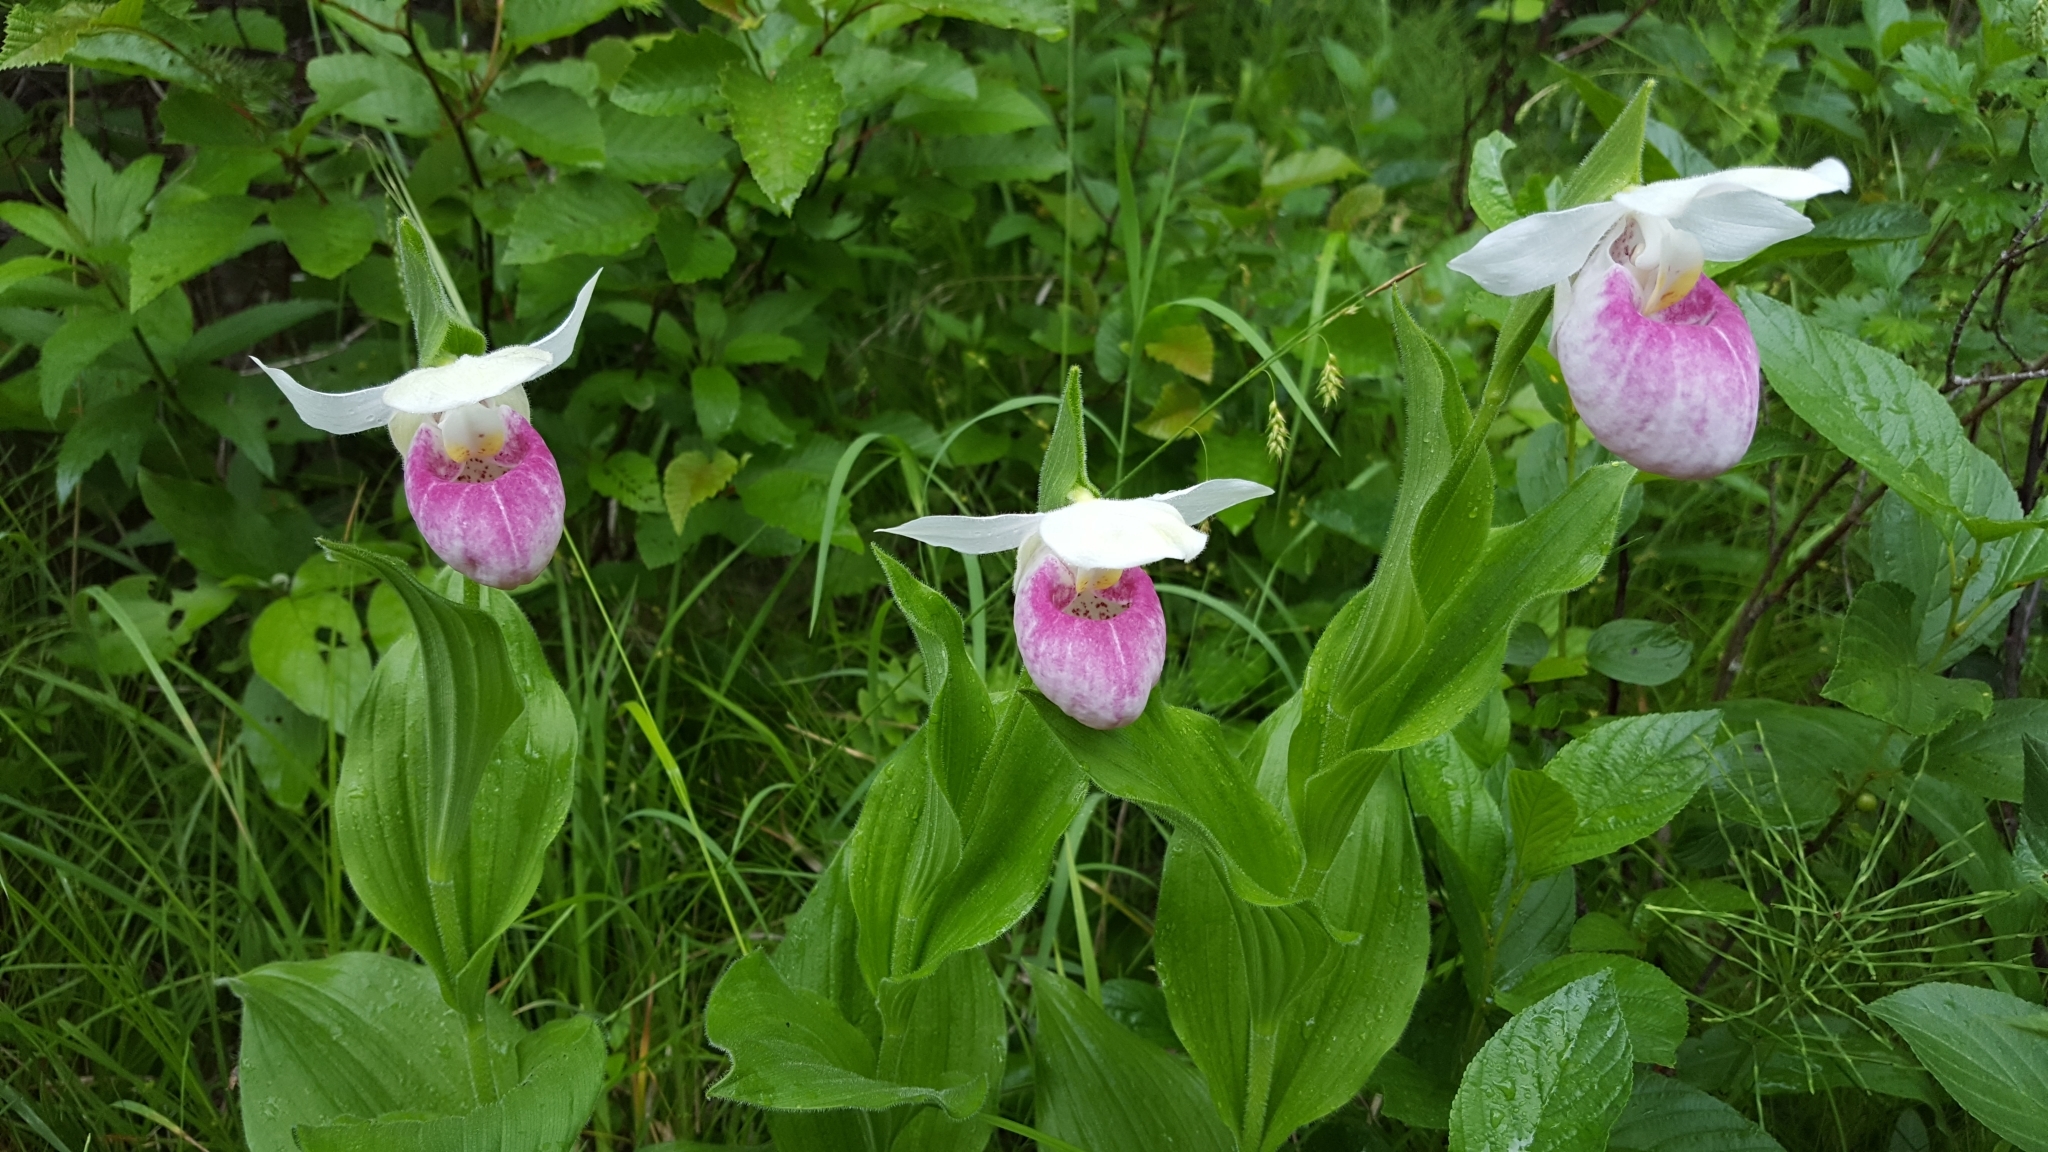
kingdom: Plantae
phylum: Tracheophyta
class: Liliopsida
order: Asparagales
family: Orchidaceae
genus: Cypripedium
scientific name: Cypripedium reginae
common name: Queen lady's-slipper
